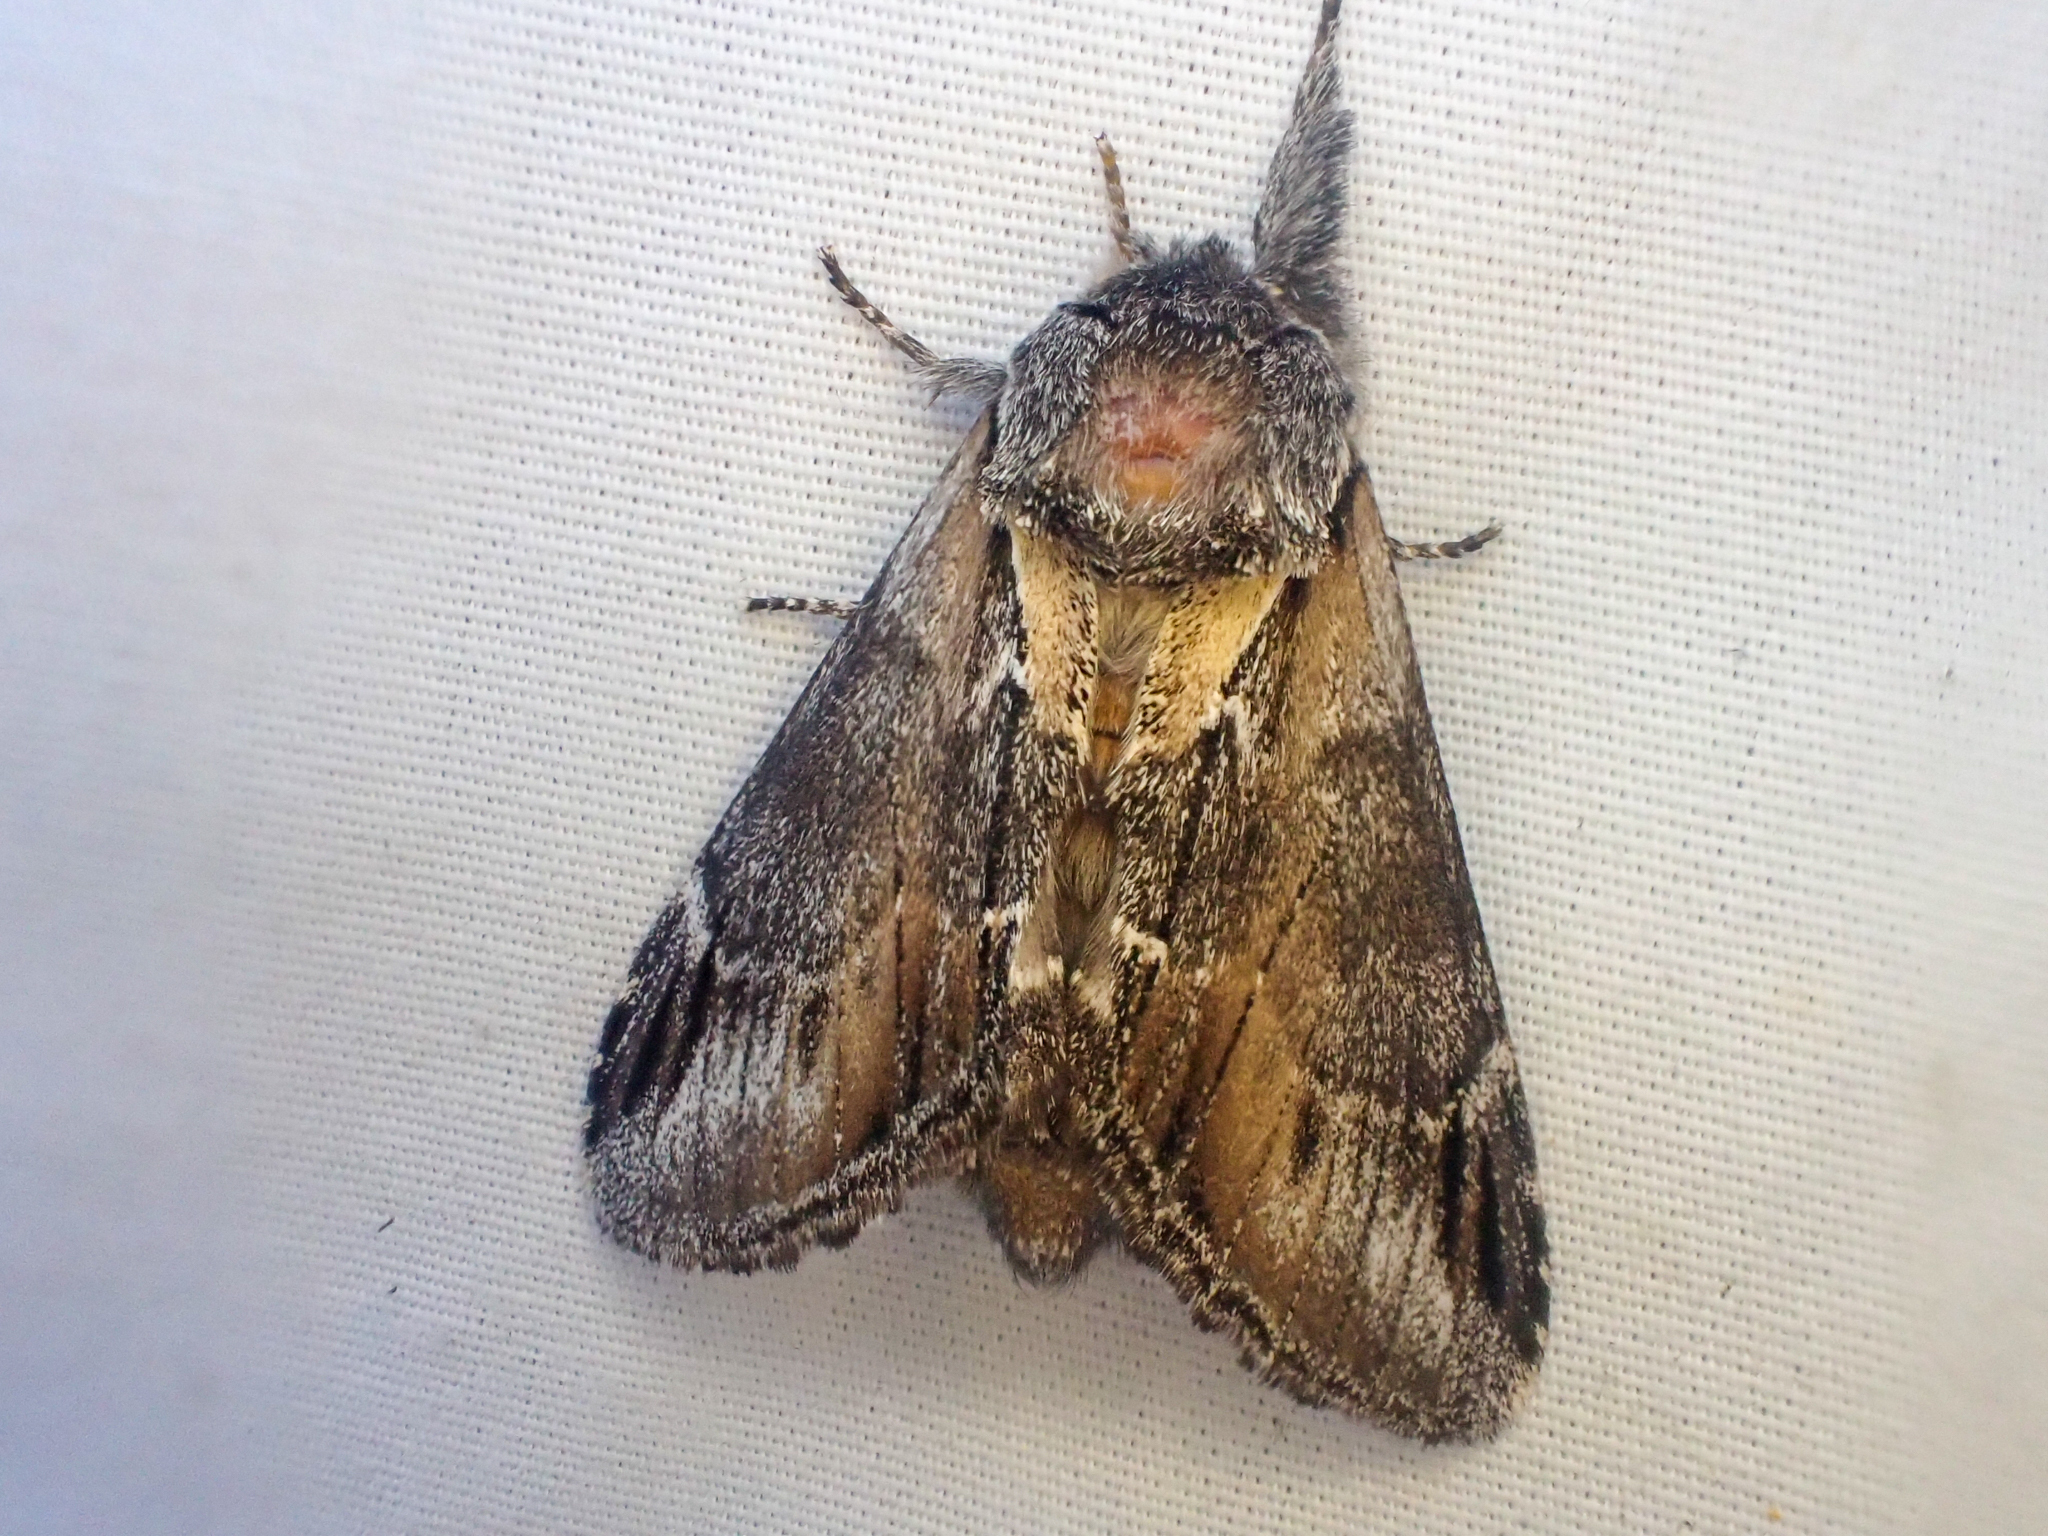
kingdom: Animalia
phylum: Arthropoda
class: Insecta
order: Lepidoptera
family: Notodontidae
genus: Pheosia
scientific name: Pheosia rimosa
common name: Black-rimmed prominent
